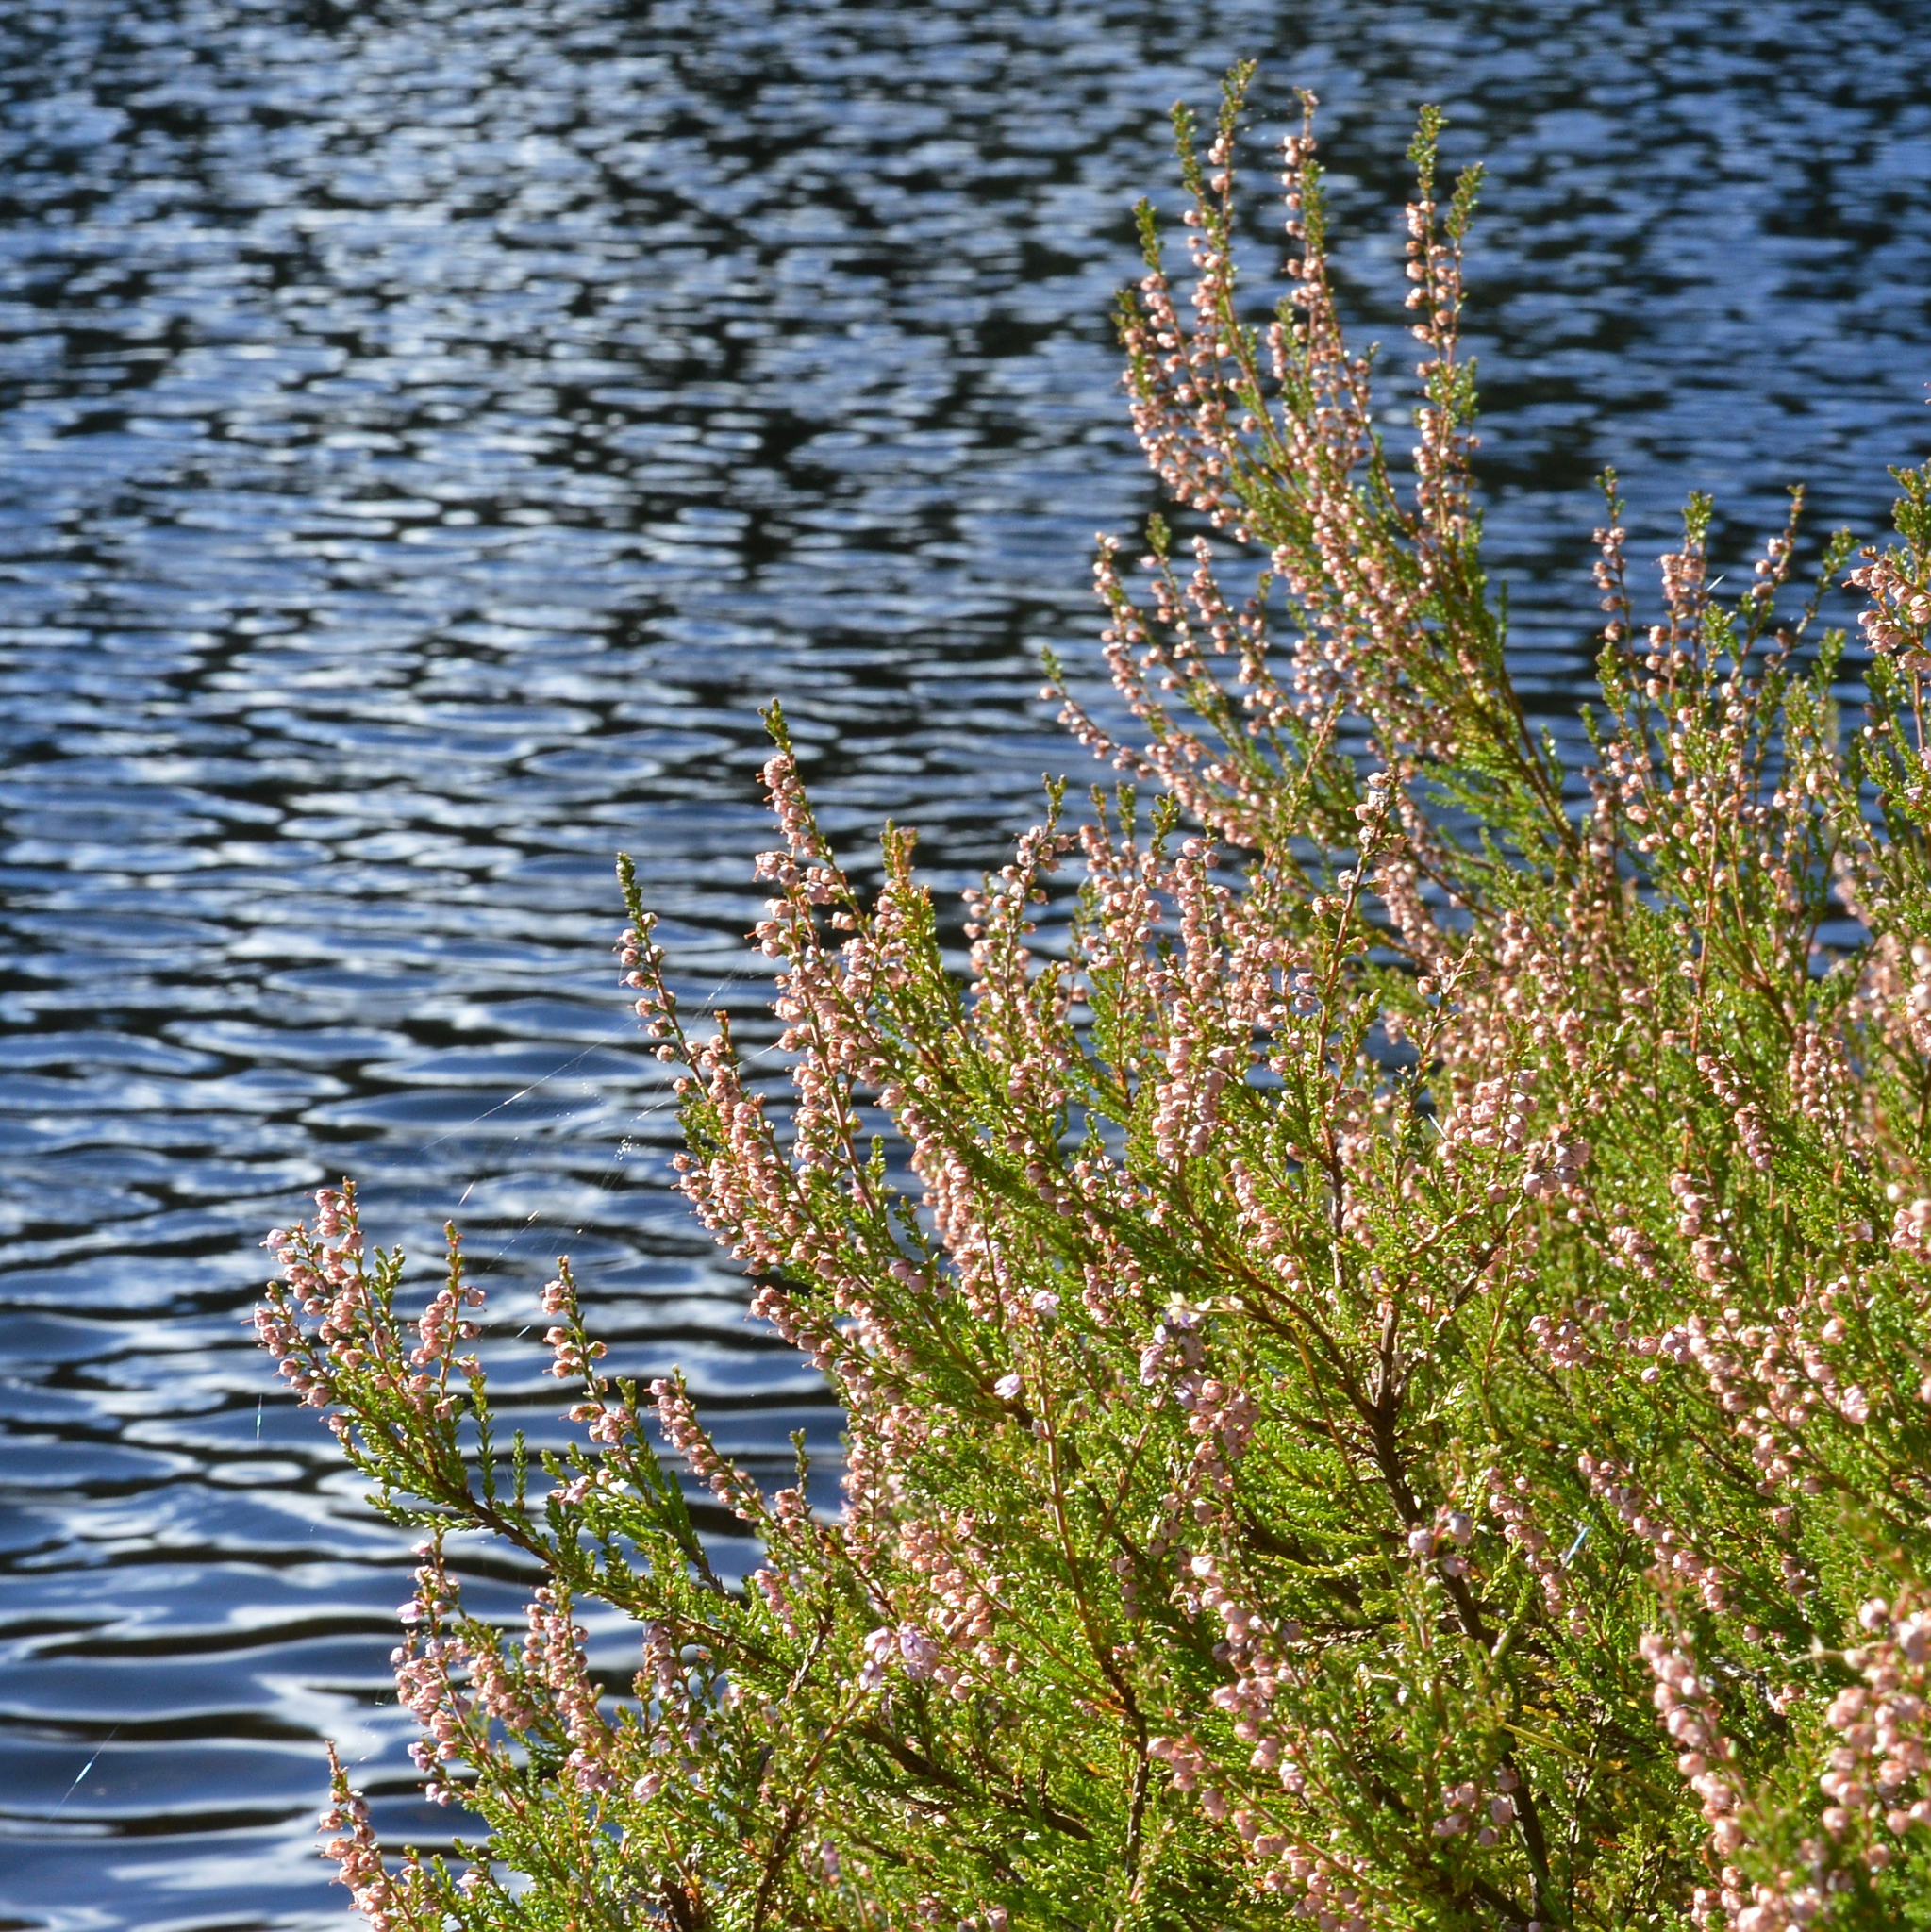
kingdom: Plantae
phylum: Tracheophyta
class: Magnoliopsida
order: Ericales
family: Ericaceae
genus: Calluna
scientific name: Calluna vulgaris
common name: Heather
